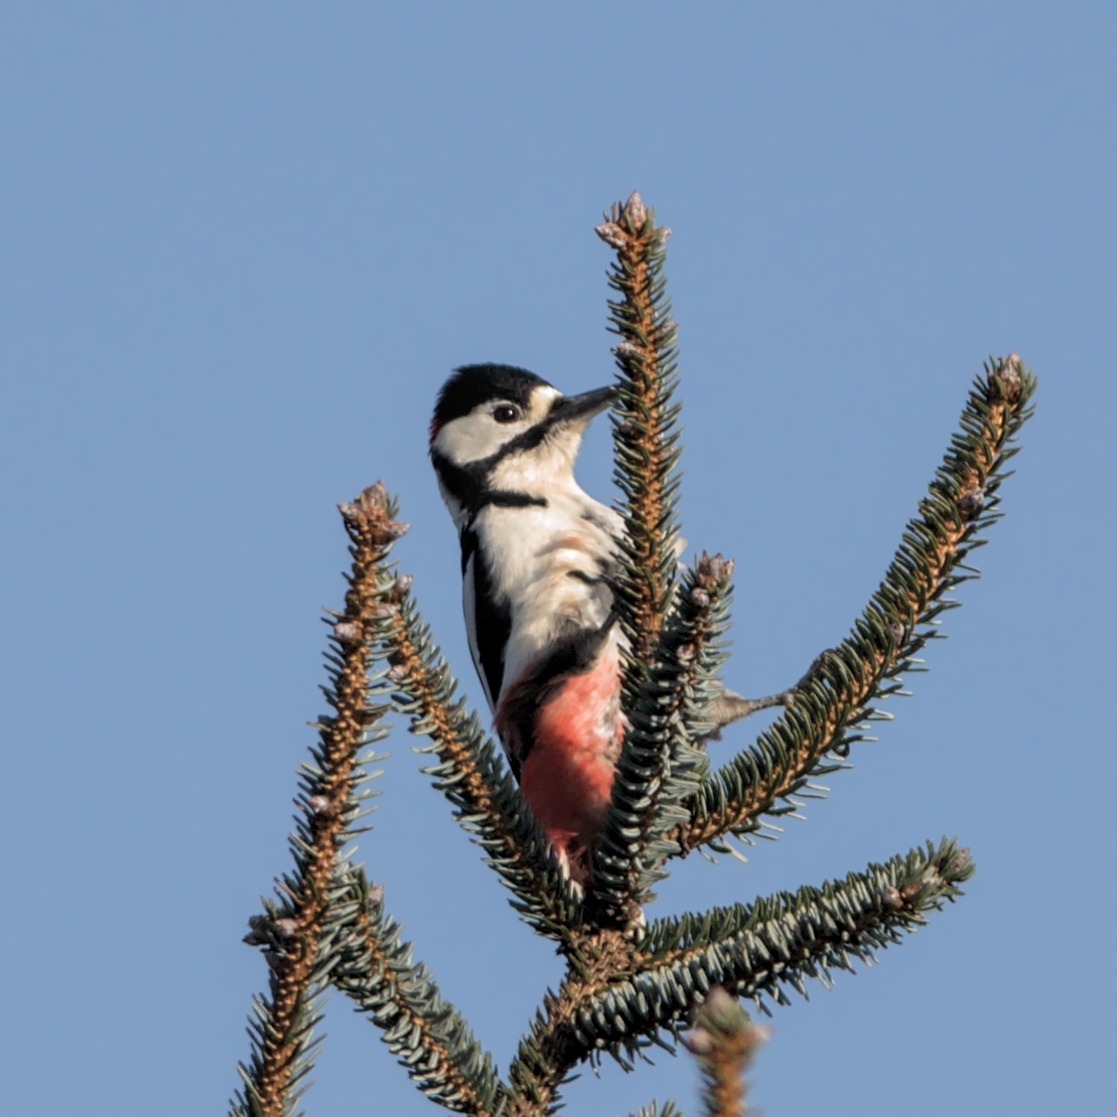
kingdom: Animalia
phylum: Chordata
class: Aves
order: Piciformes
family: Picidae
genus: Dendrocopos
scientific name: Dendrocopos major
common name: Great spotted woodpecker
